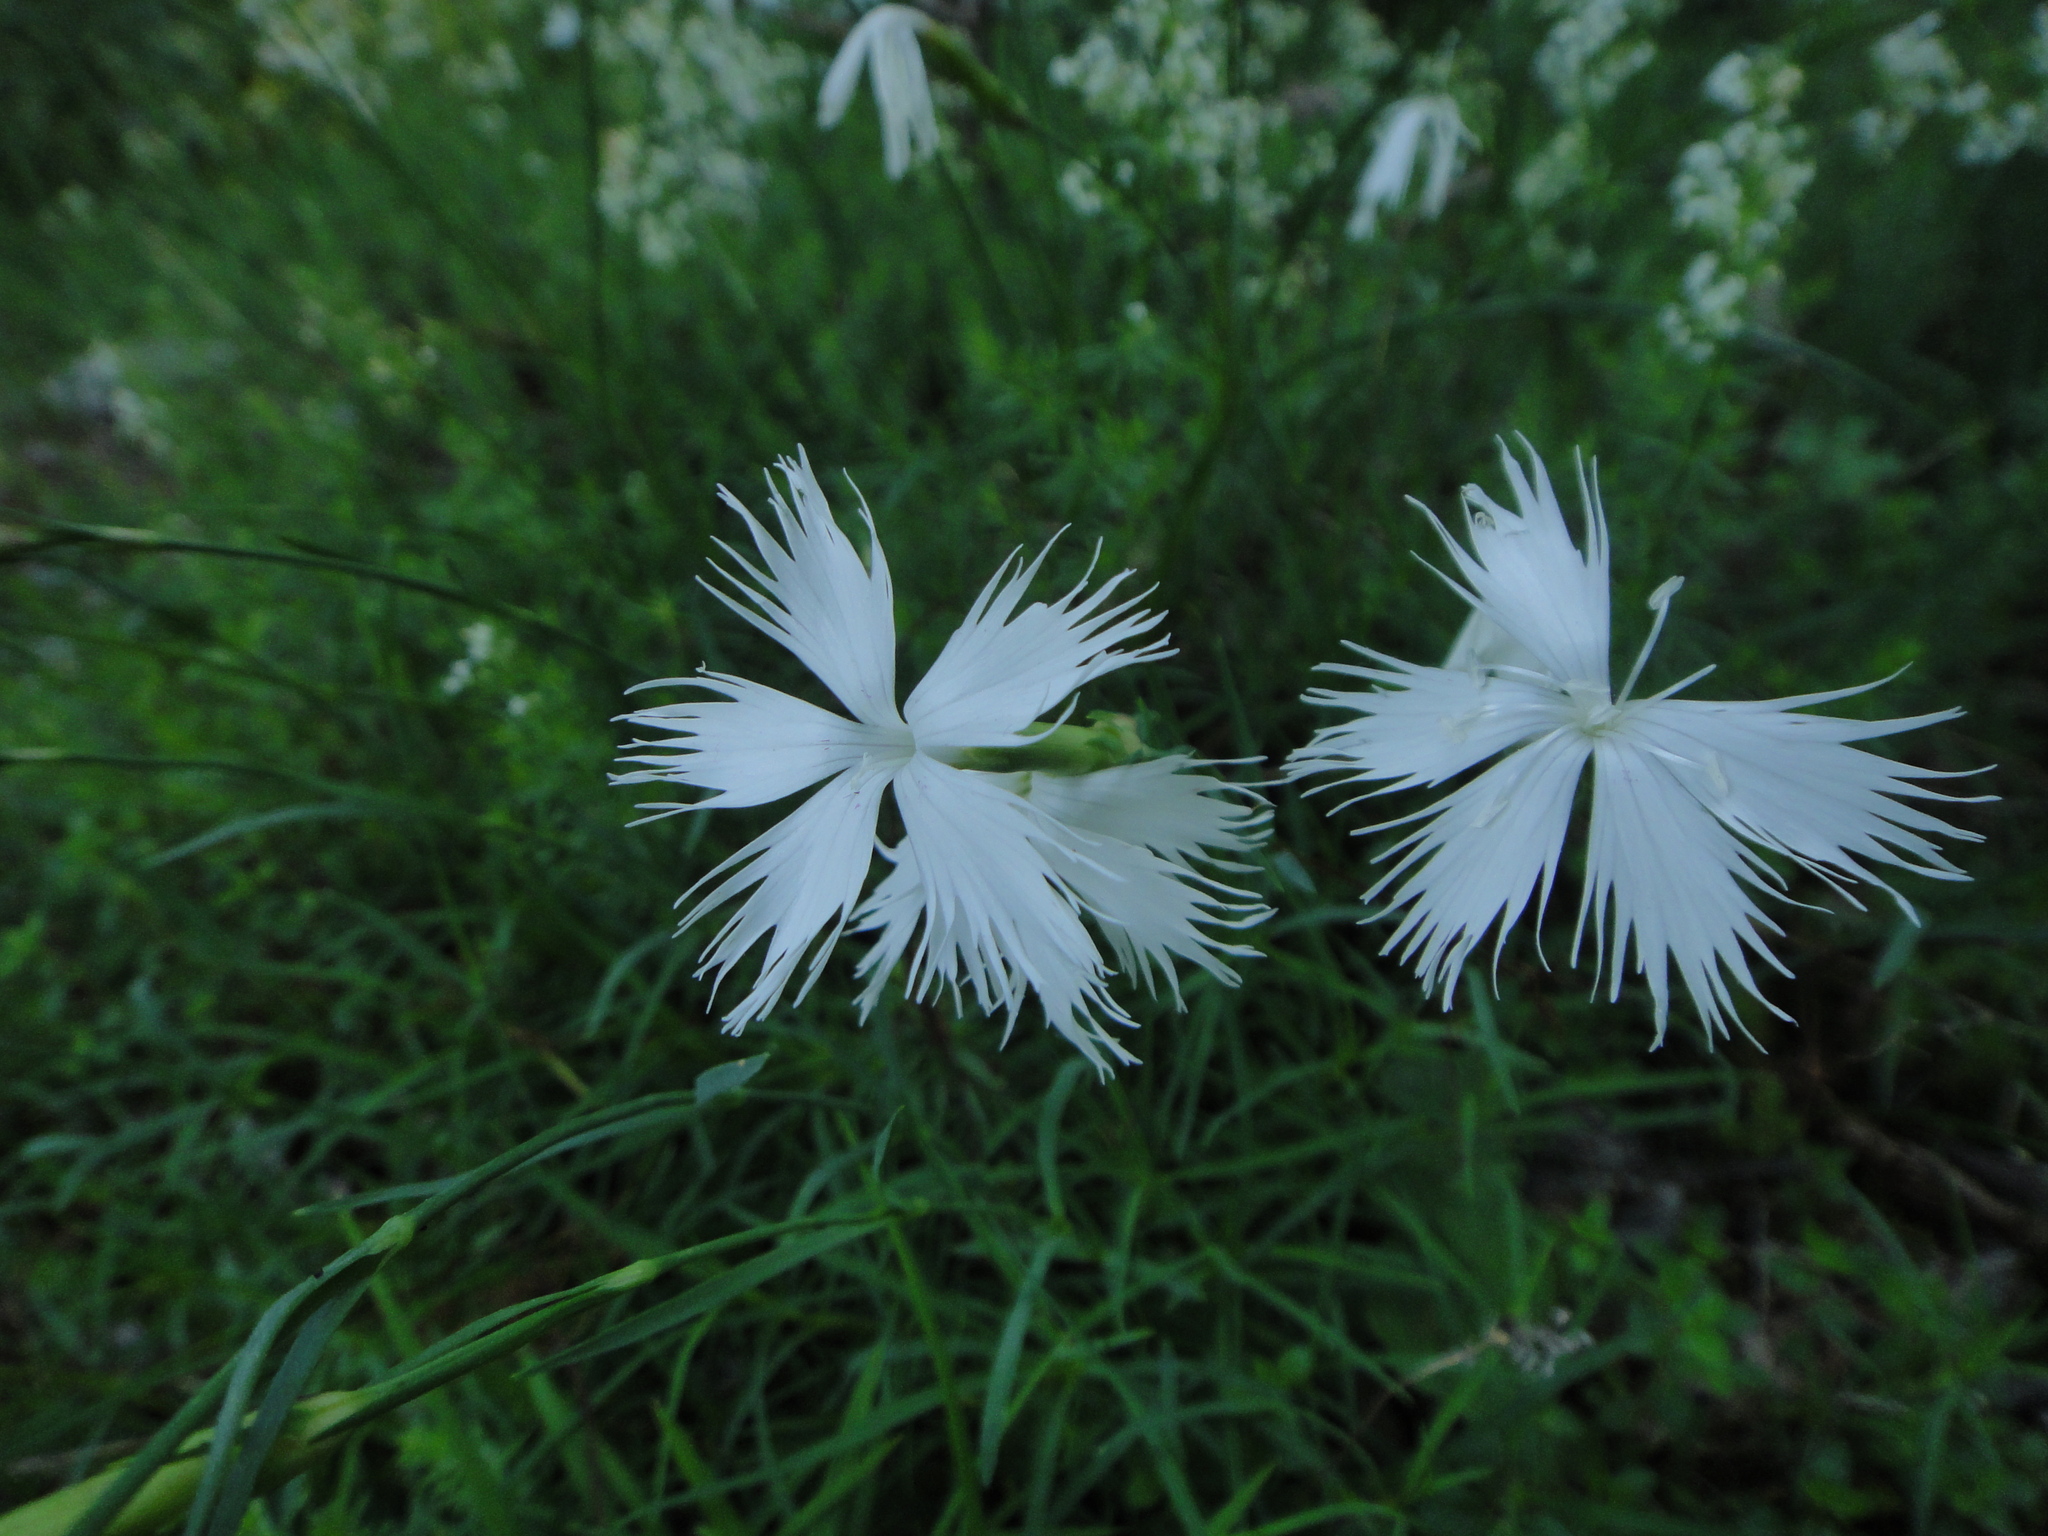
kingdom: Plantae
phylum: Tracheophyta
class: Magnoliopsida
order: Caryophyllales
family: Caryophyllaceae
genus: Dianthus
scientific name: Dianthus petraeus
